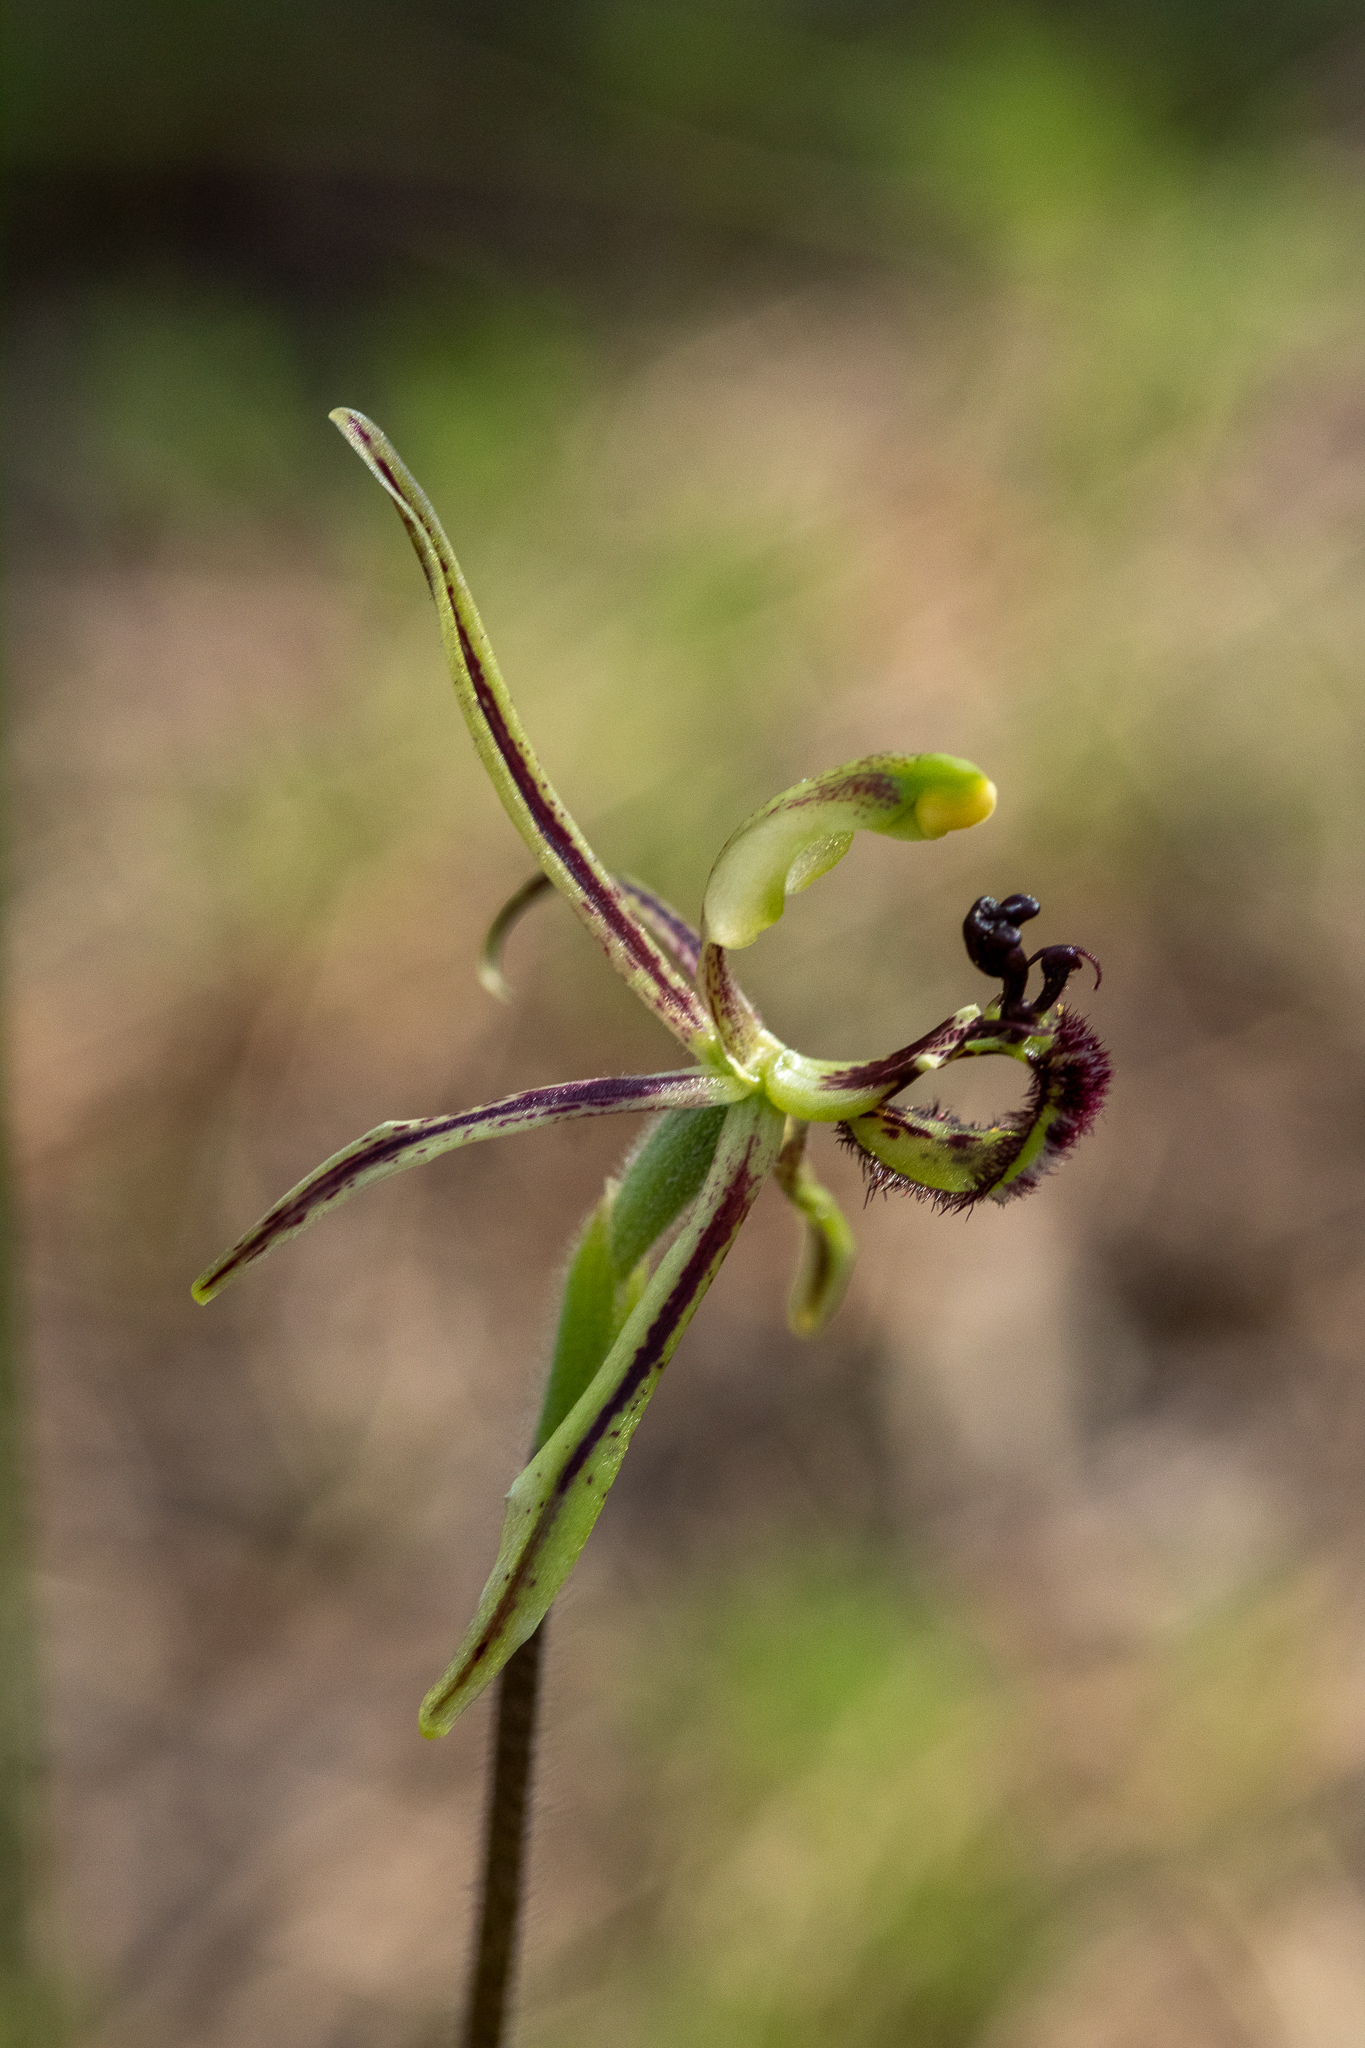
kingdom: Plantae
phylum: Tracheophyta
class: Liliopsida
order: Asparagales
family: Orchidaceae
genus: Caladenia
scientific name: Caladenia barbarossa
